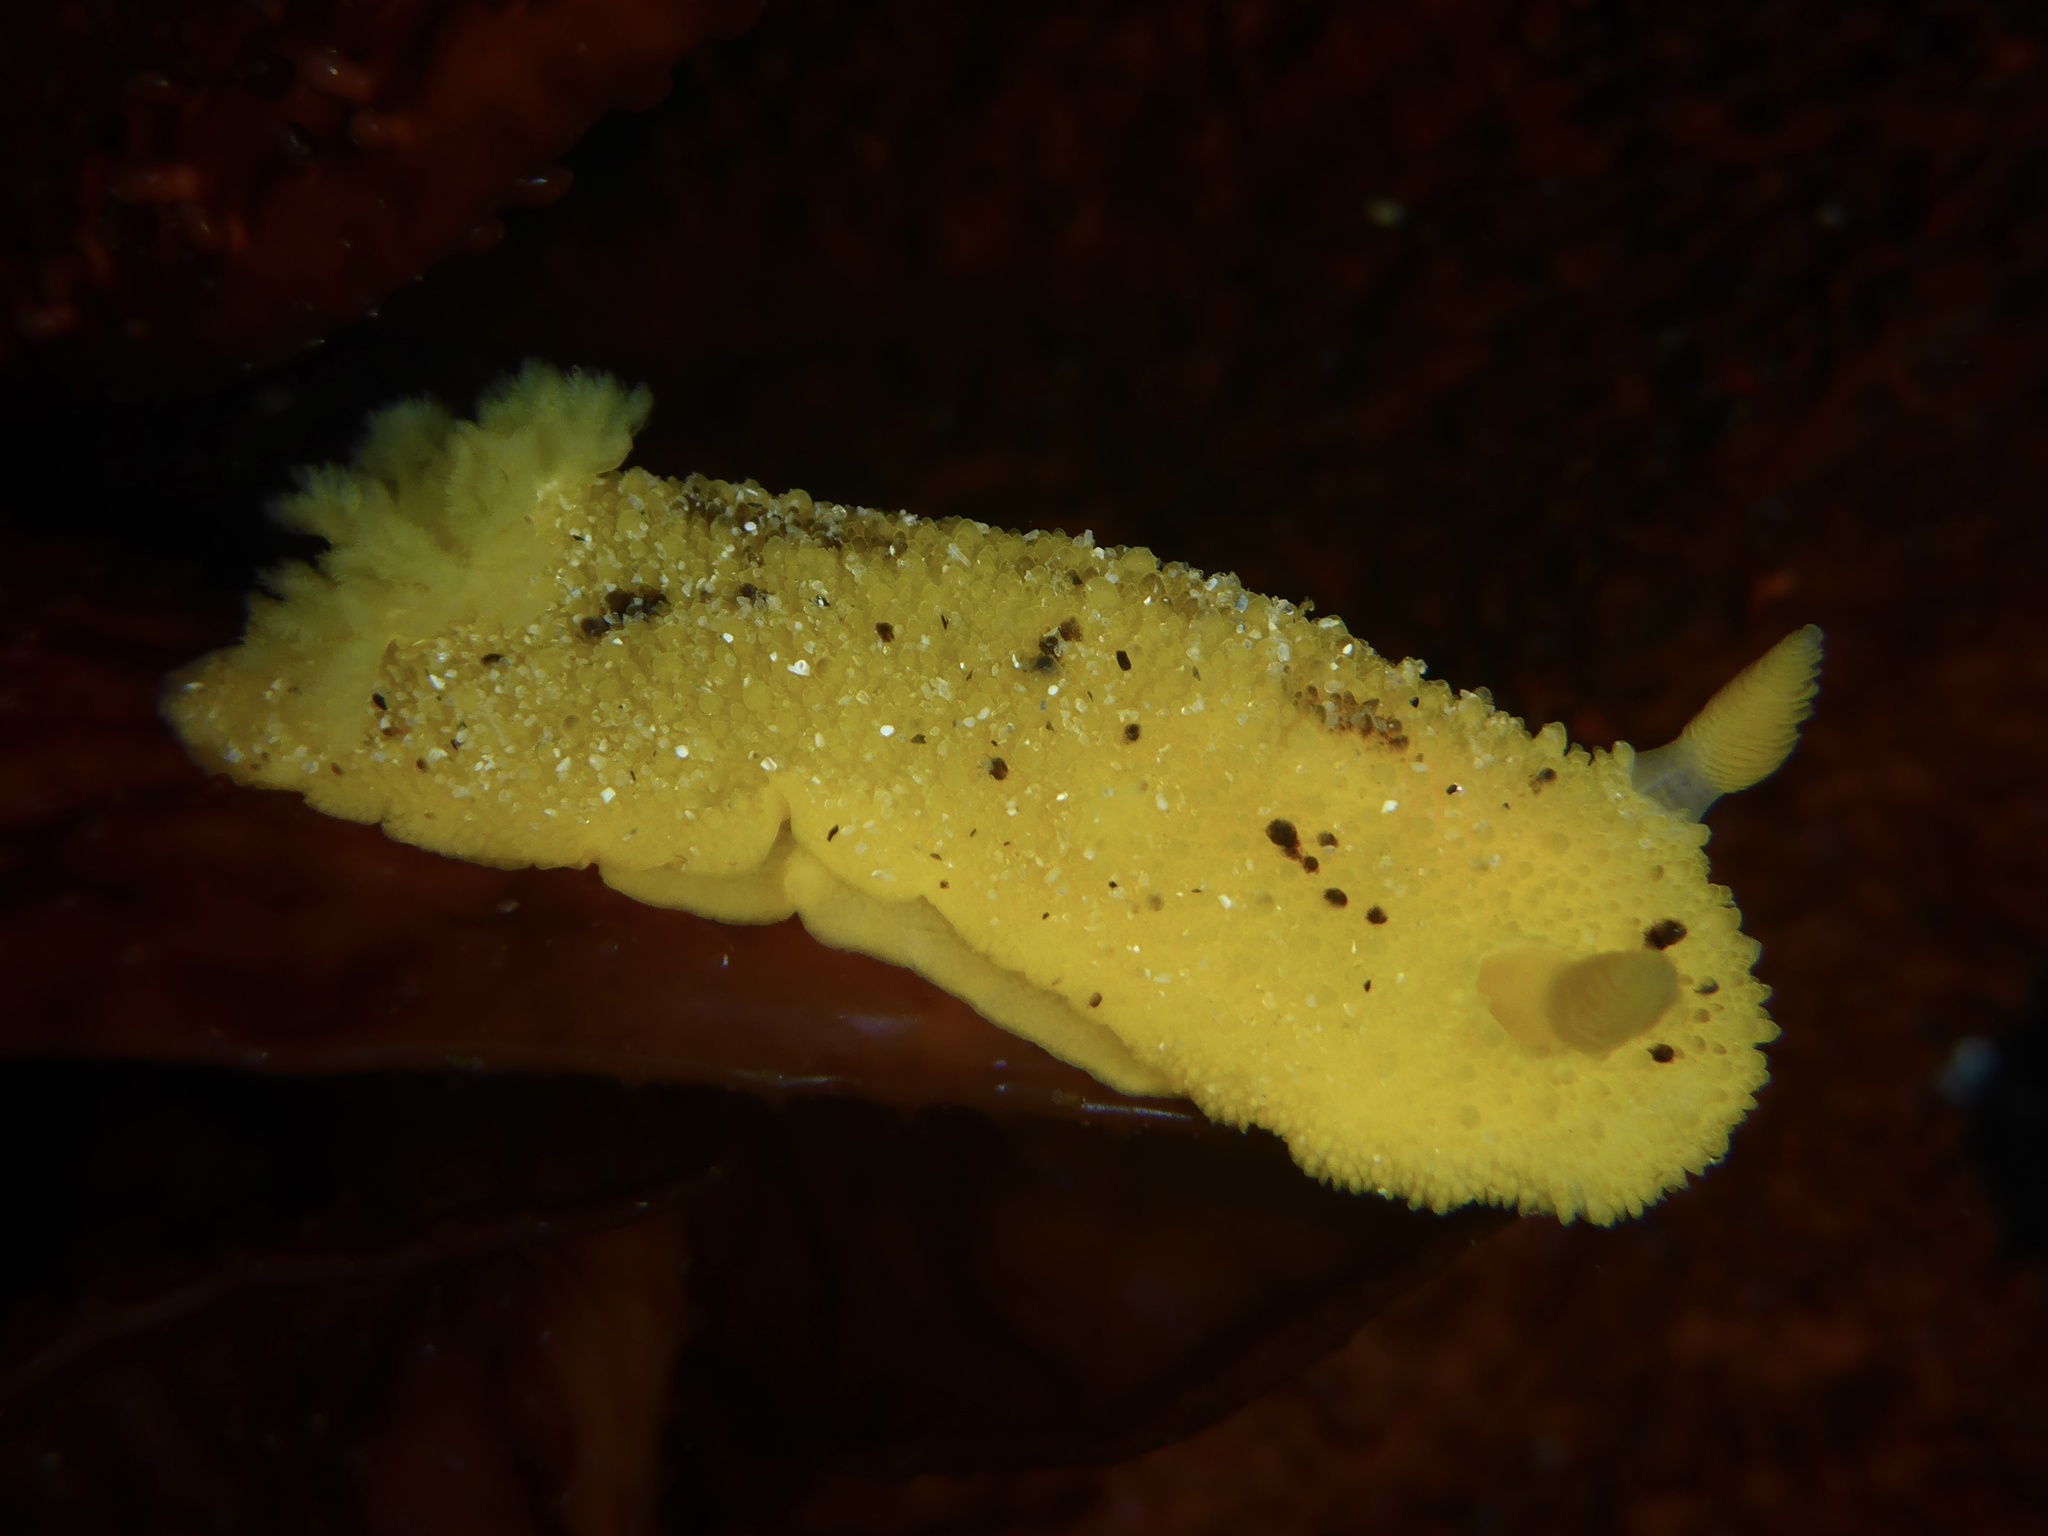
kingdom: Animalia
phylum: Mollusca
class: Gastropoda
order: Nudibranchia
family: Dorididae
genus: Doris
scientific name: Doris montereyensis
